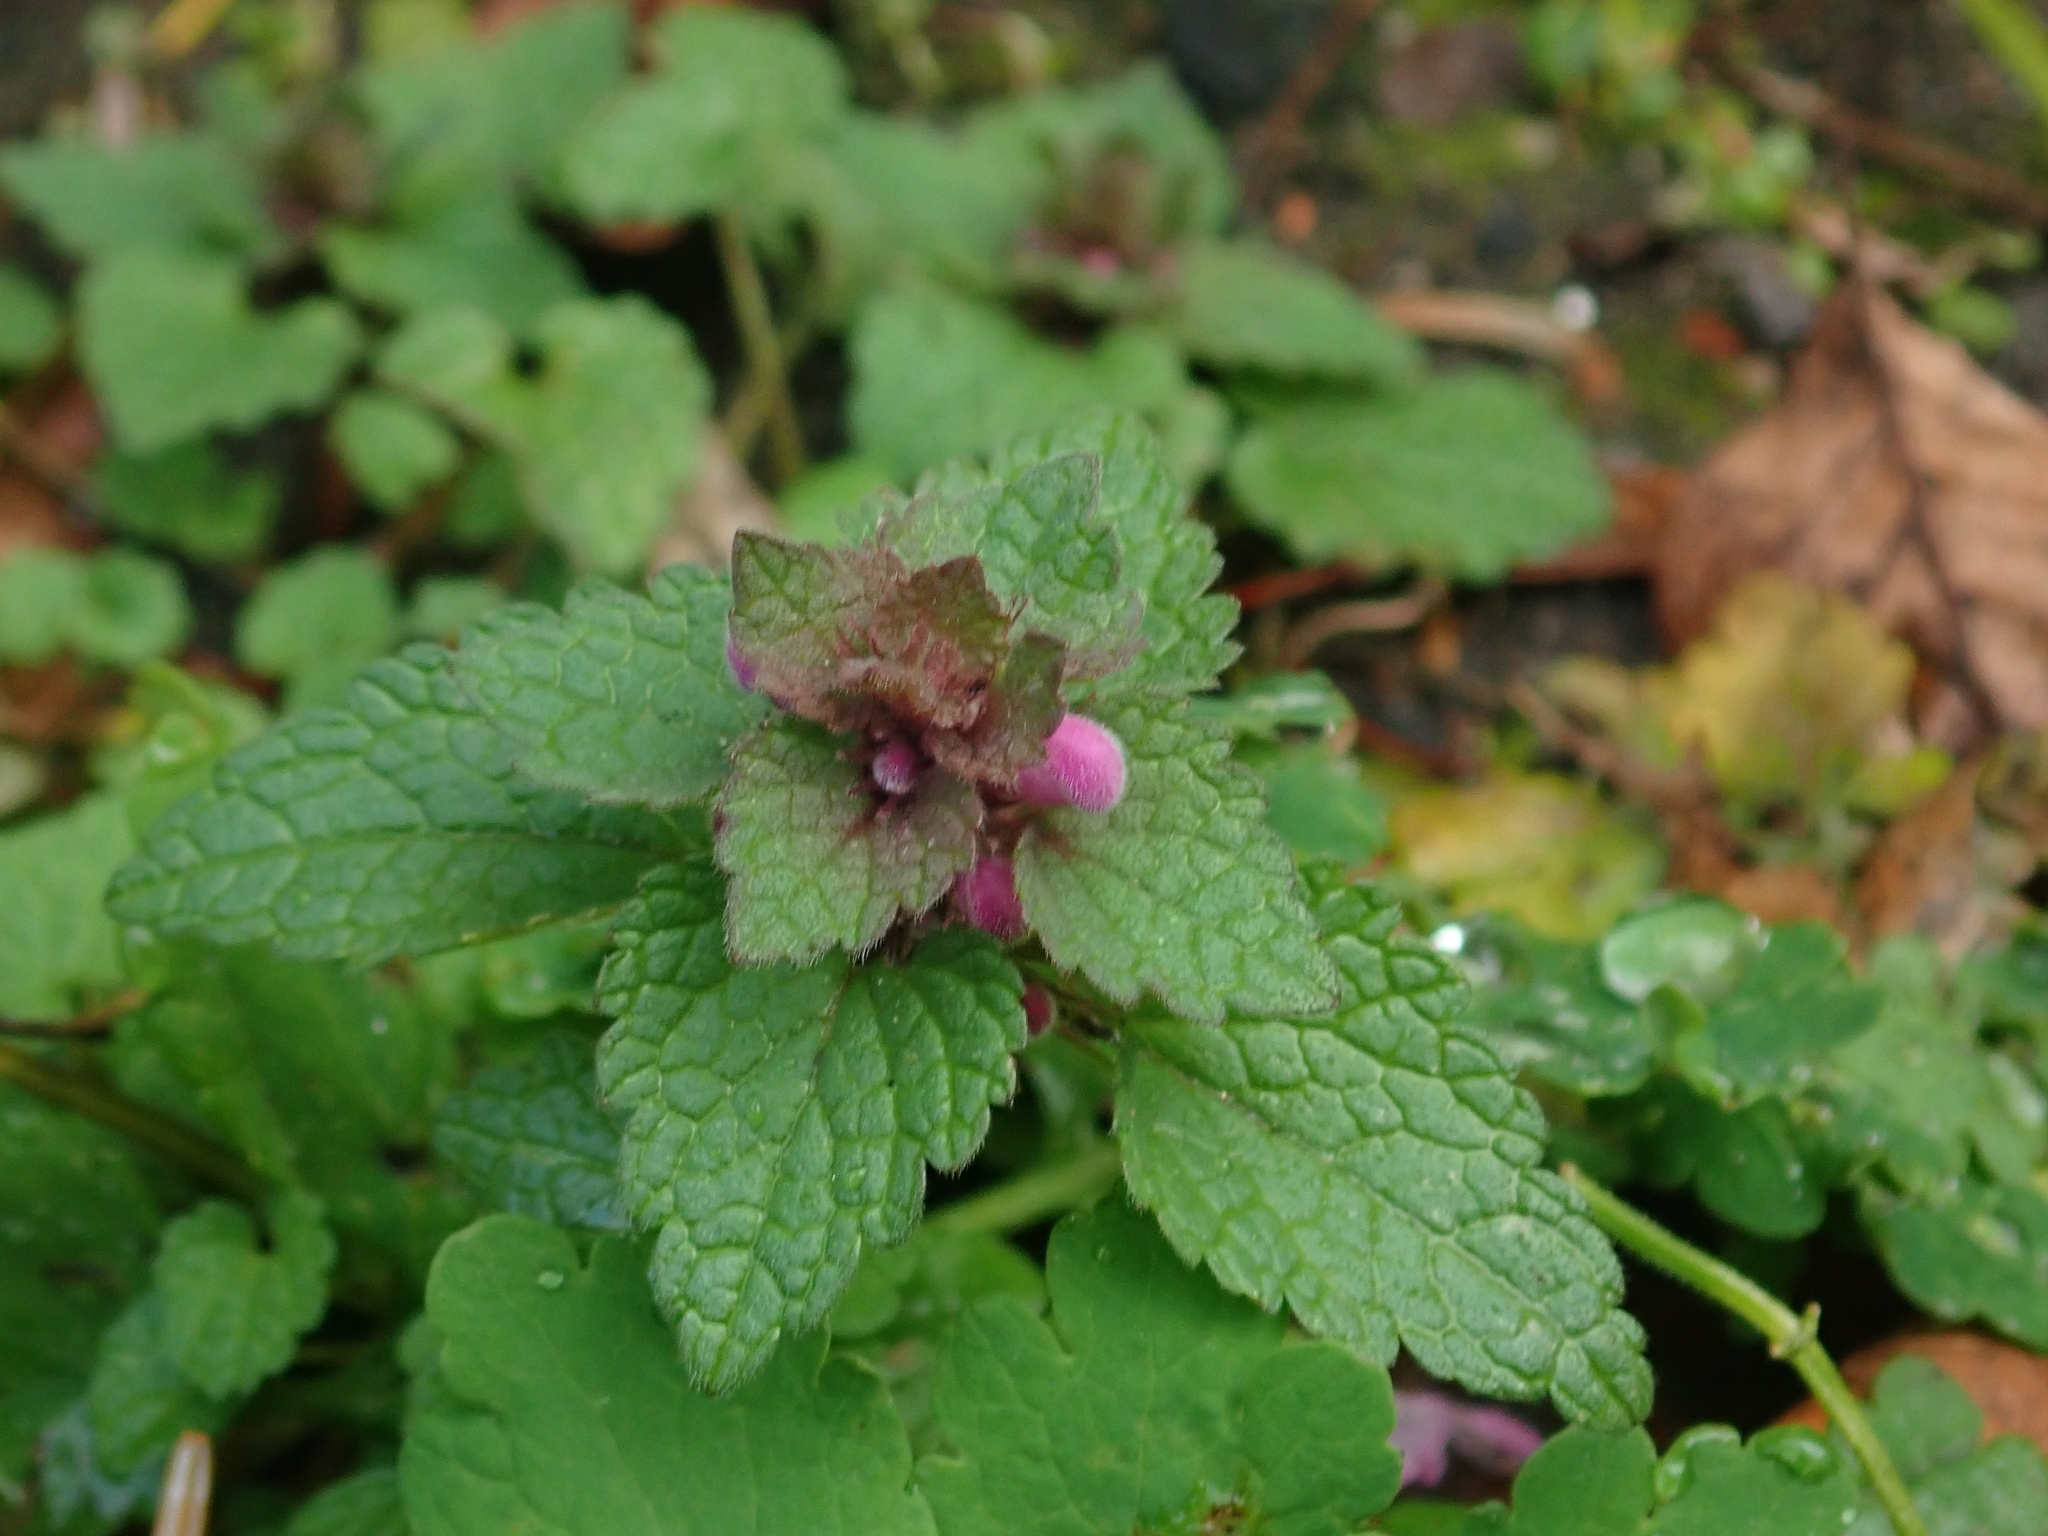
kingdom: Plantae
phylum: Tracheophyta
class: Magnoliopsida
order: Lamiales
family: Lamiaceae
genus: Lamium
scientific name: Lamium purpureum
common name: Red dead-nettle
